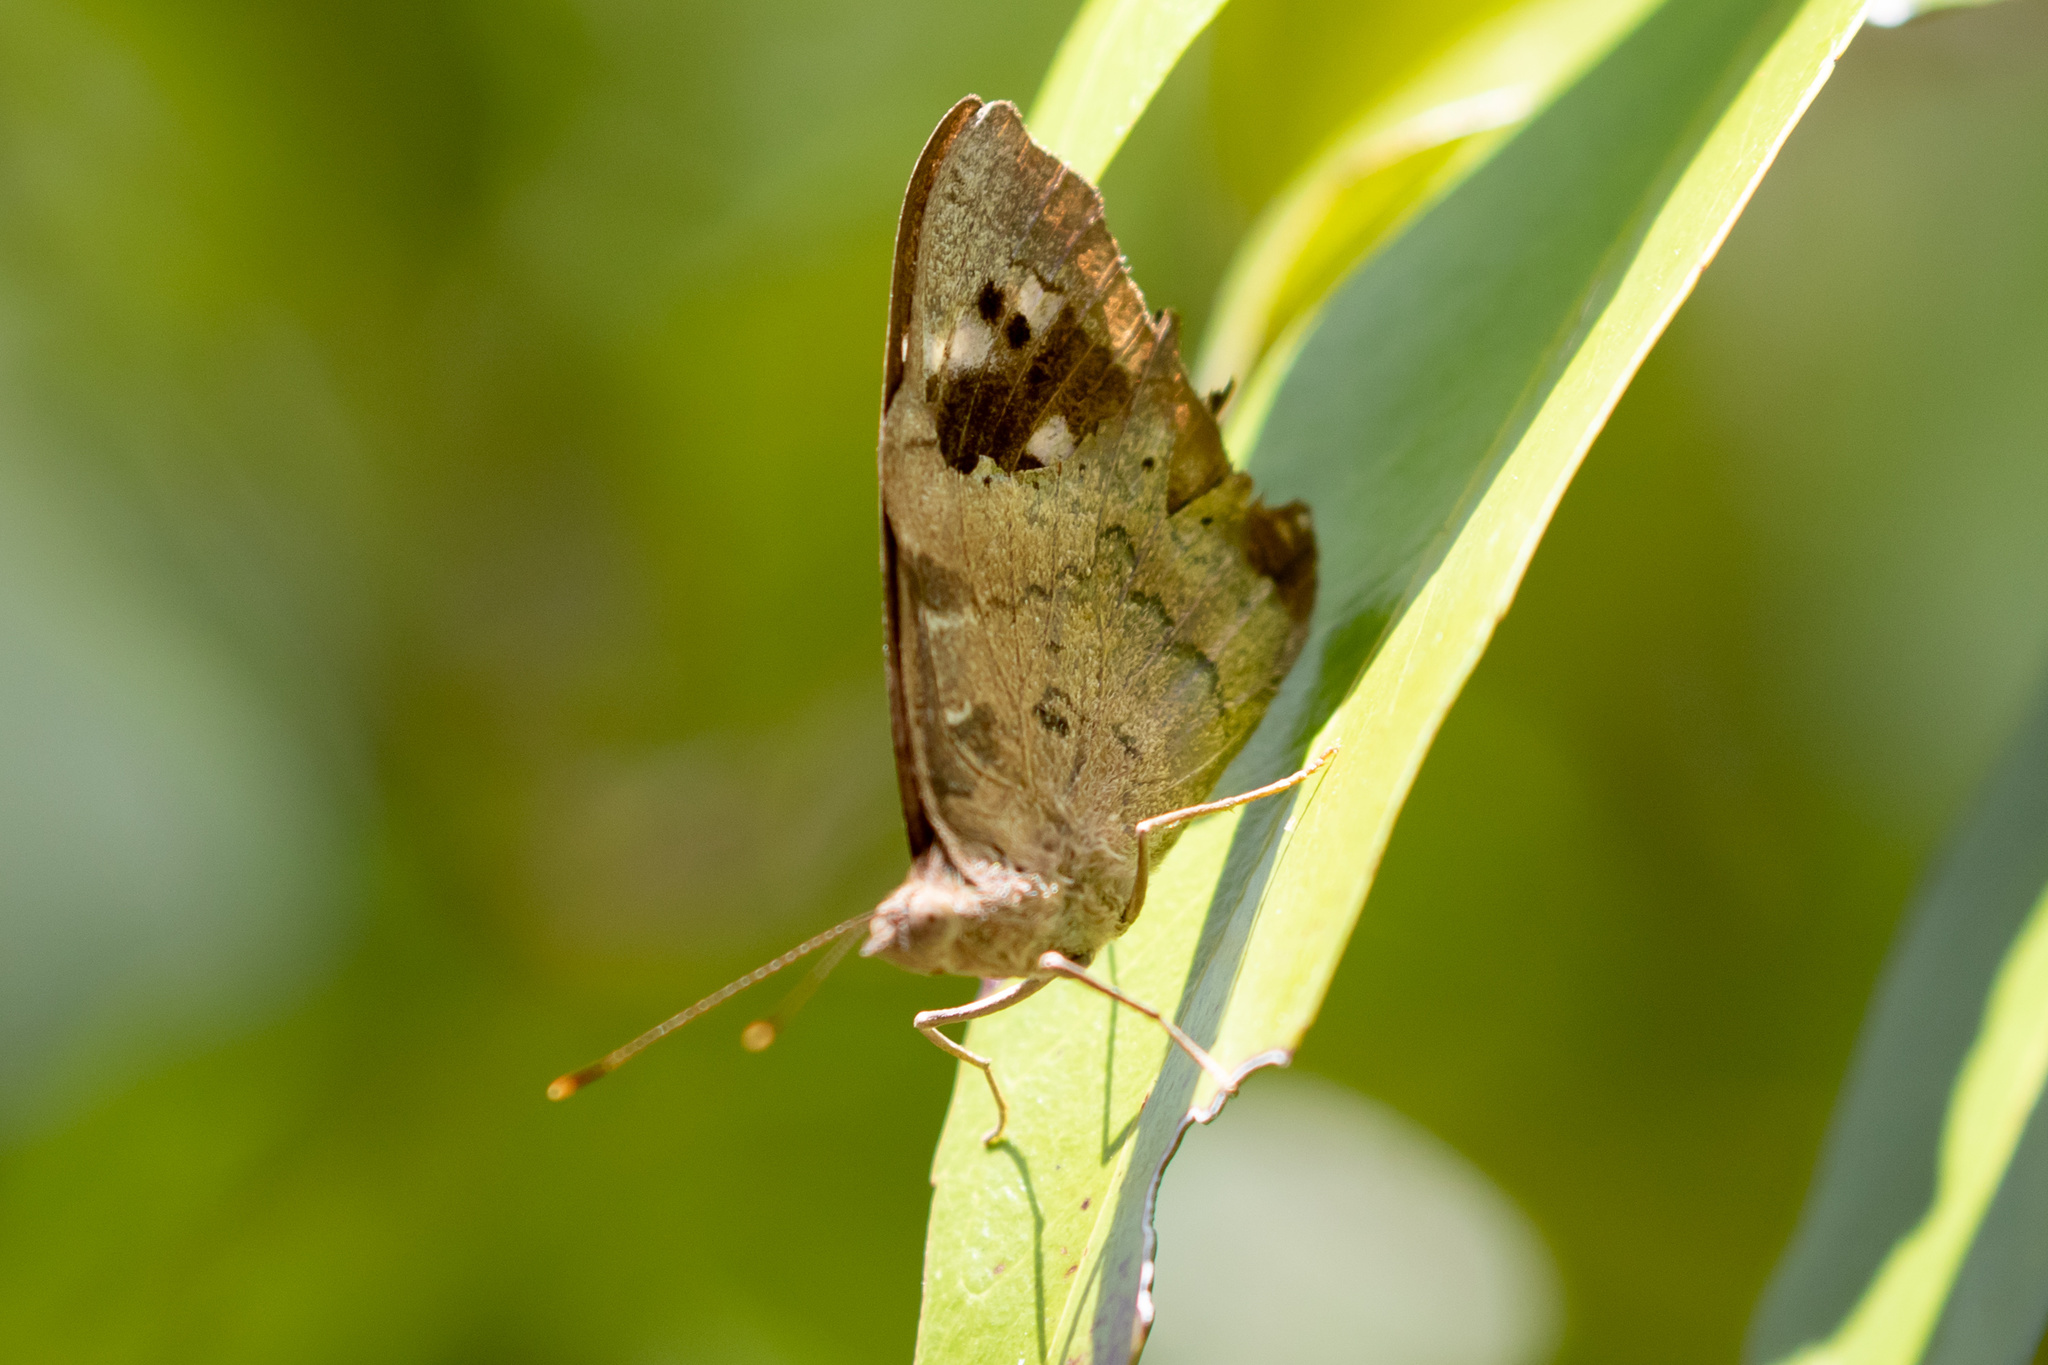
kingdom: Animalia
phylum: Arthropoda
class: Insecta
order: Lepidoptera
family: Nymphalidae
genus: Eunica
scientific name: Eunica tatila
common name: Florida purplewing
